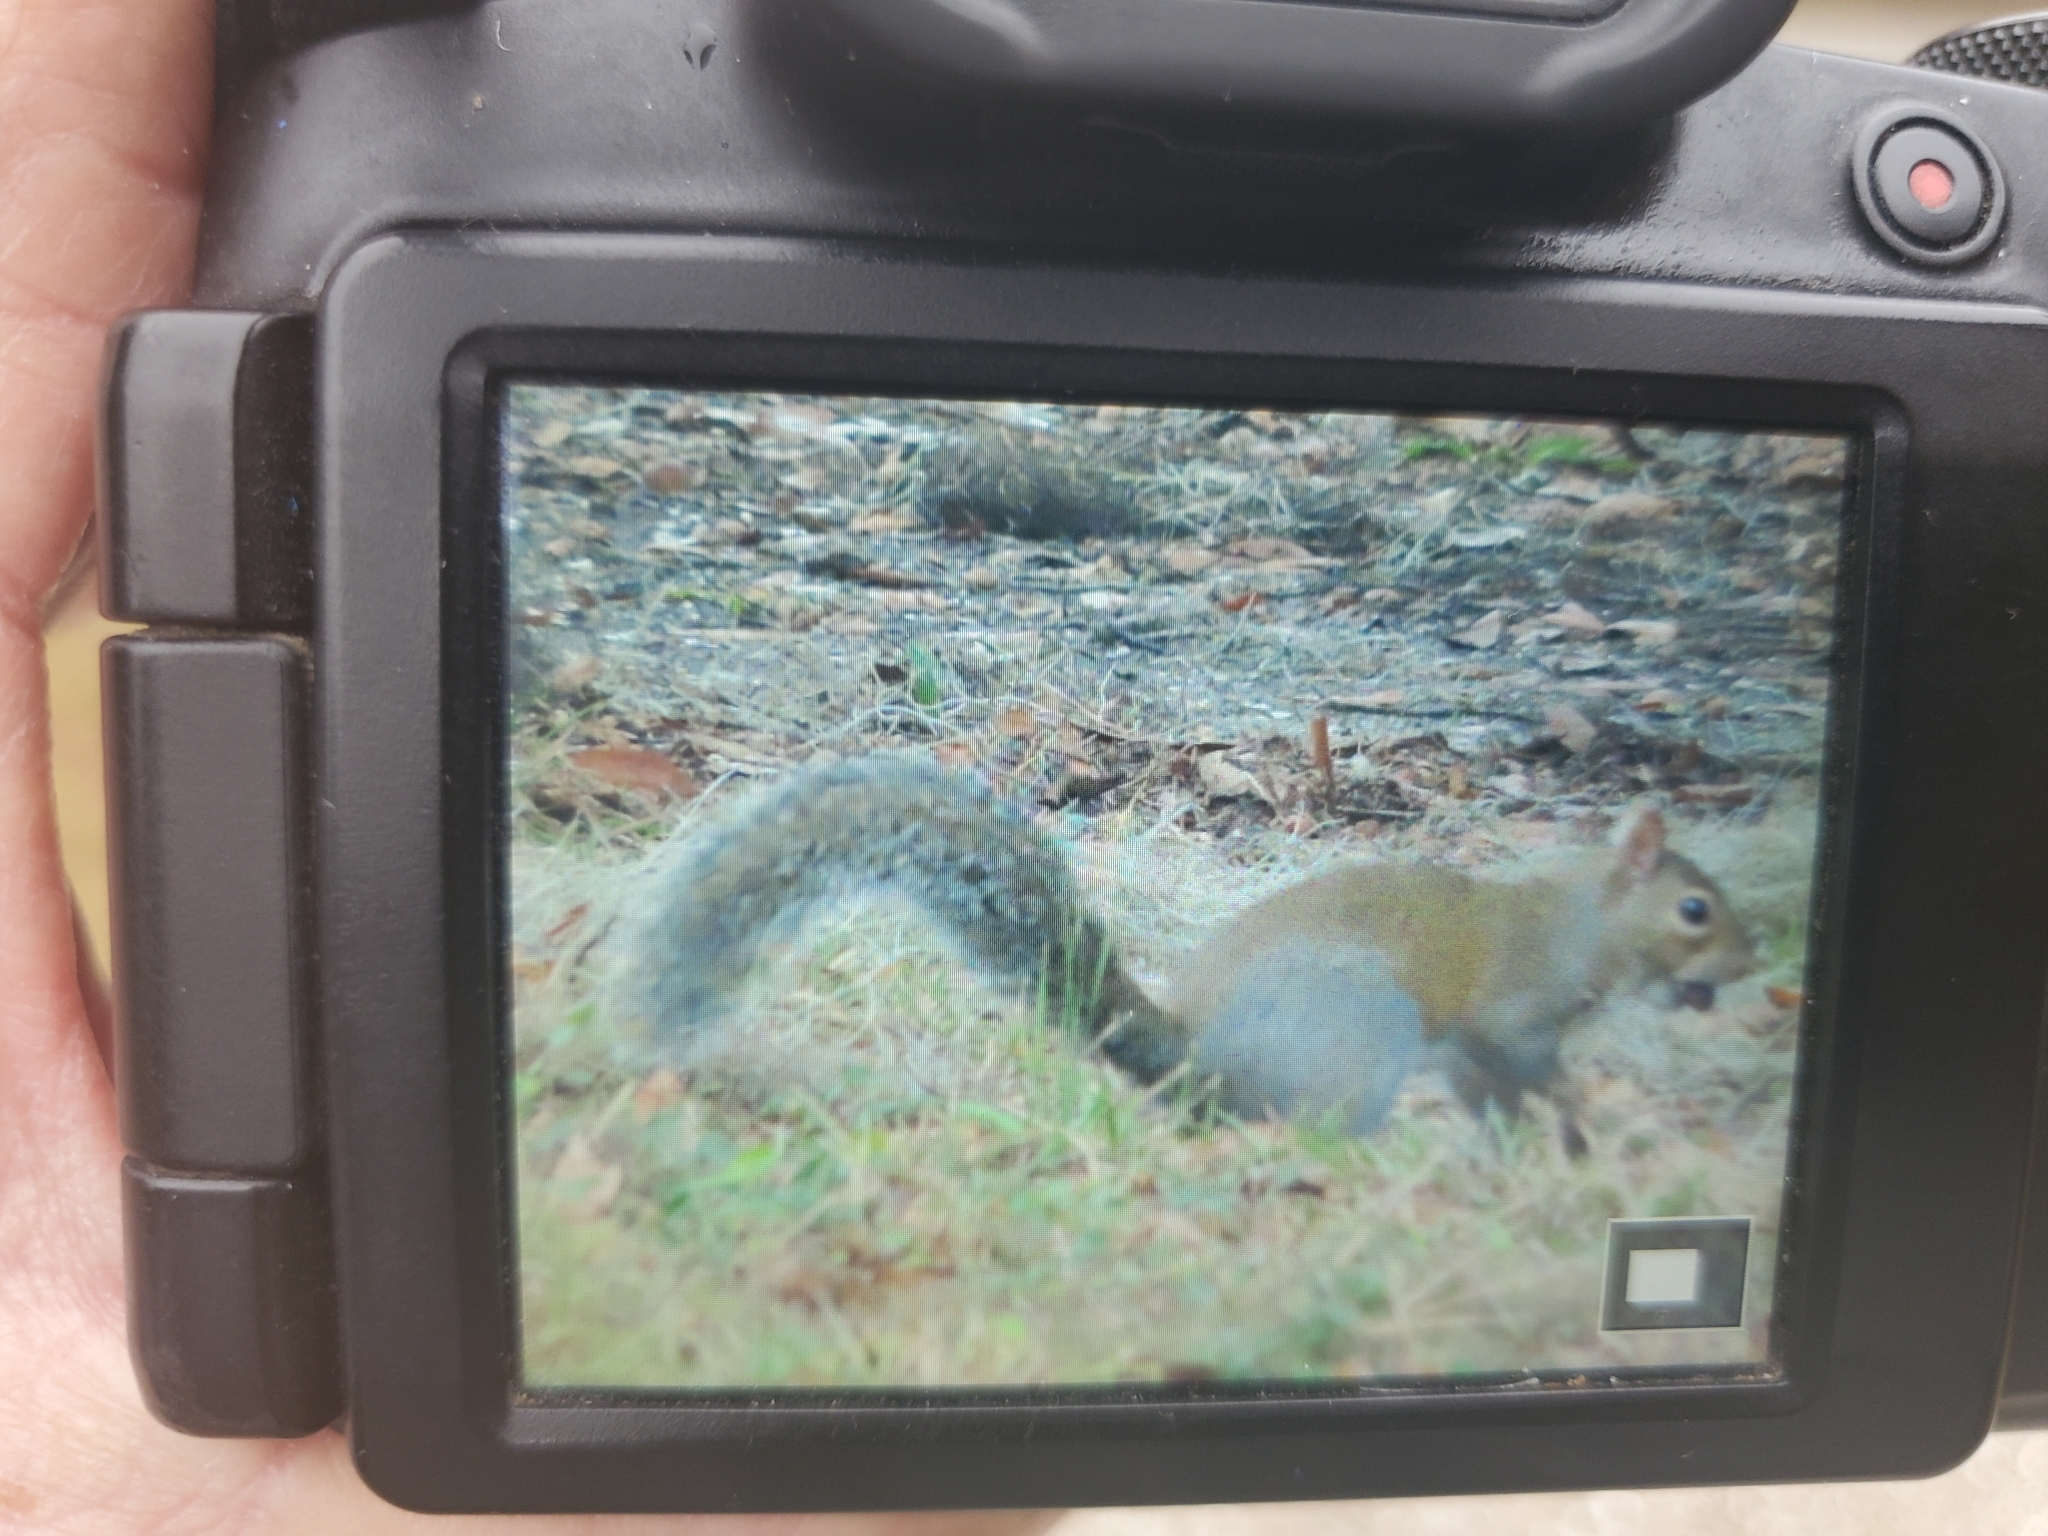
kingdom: Animalia
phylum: Chordata
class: Mammalia
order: Rodentia
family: Sciuridae
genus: Sciurus
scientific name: Sciurus carolinensis
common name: Eastern gray squirrel
